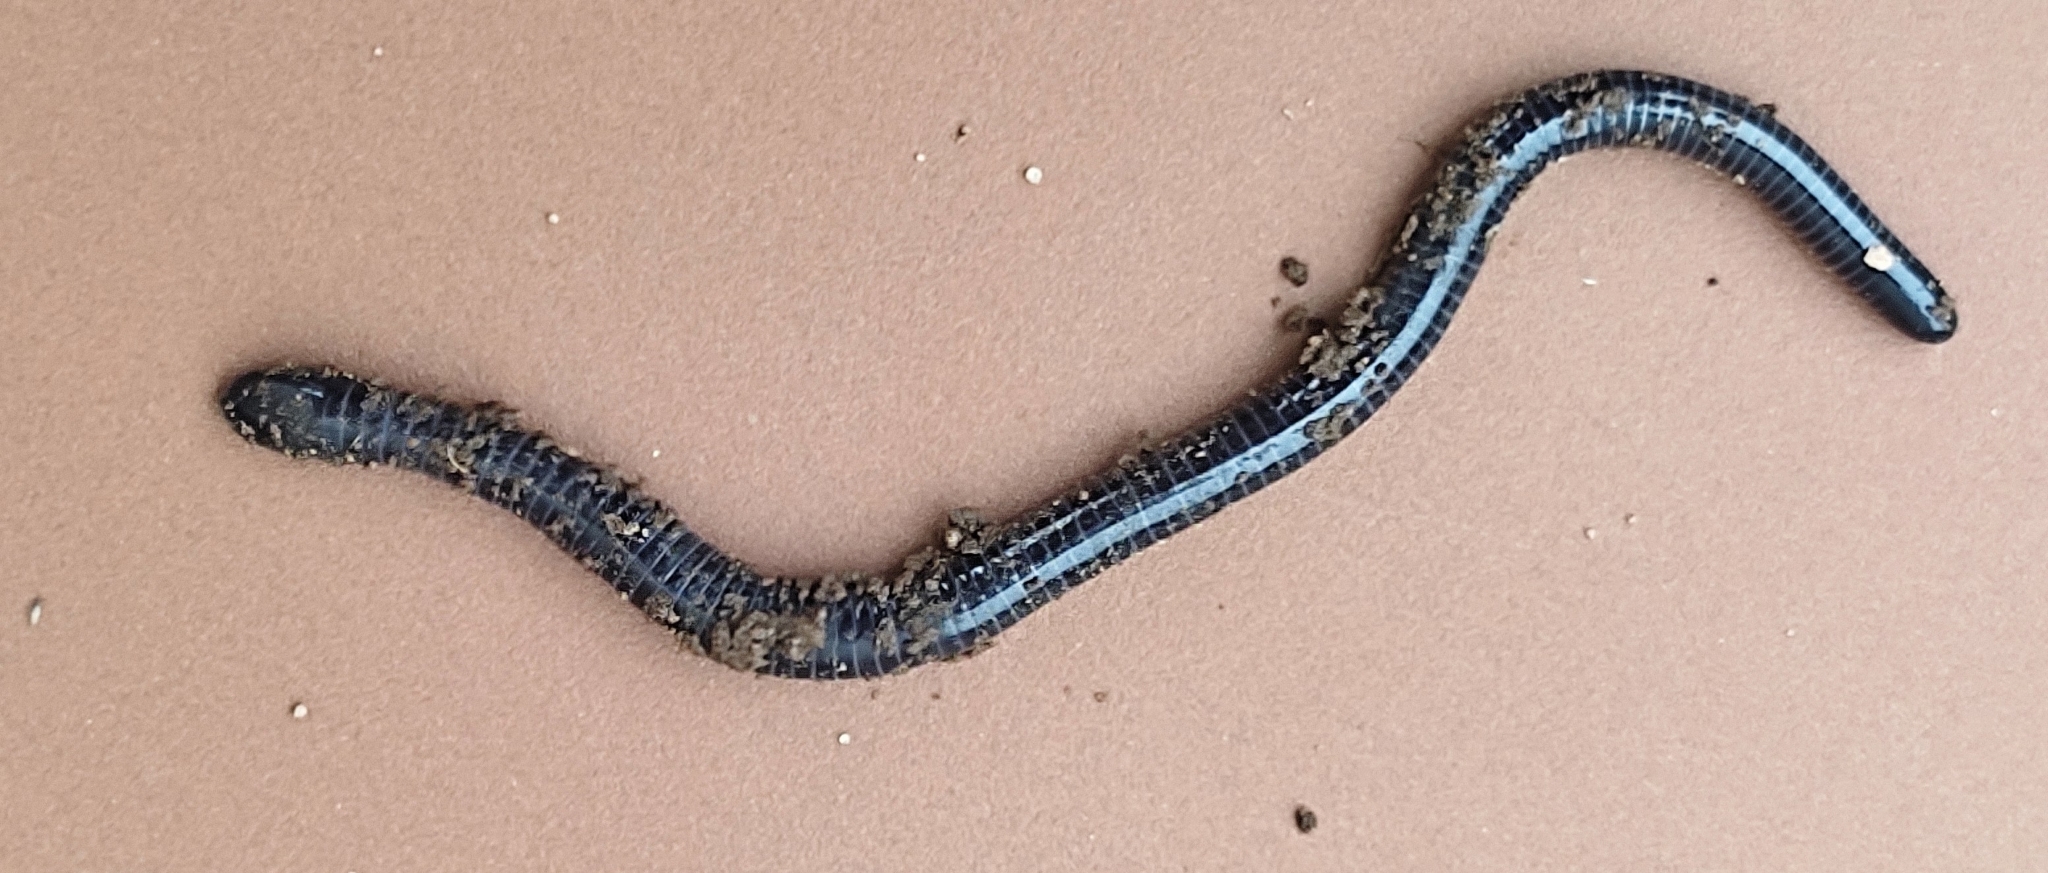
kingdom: Animalia
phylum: Chordata
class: Amphibia
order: Gymnophiona
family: Siphonopidae
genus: Siphonops
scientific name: Siphonops annulatus
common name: Ringed caecilia
